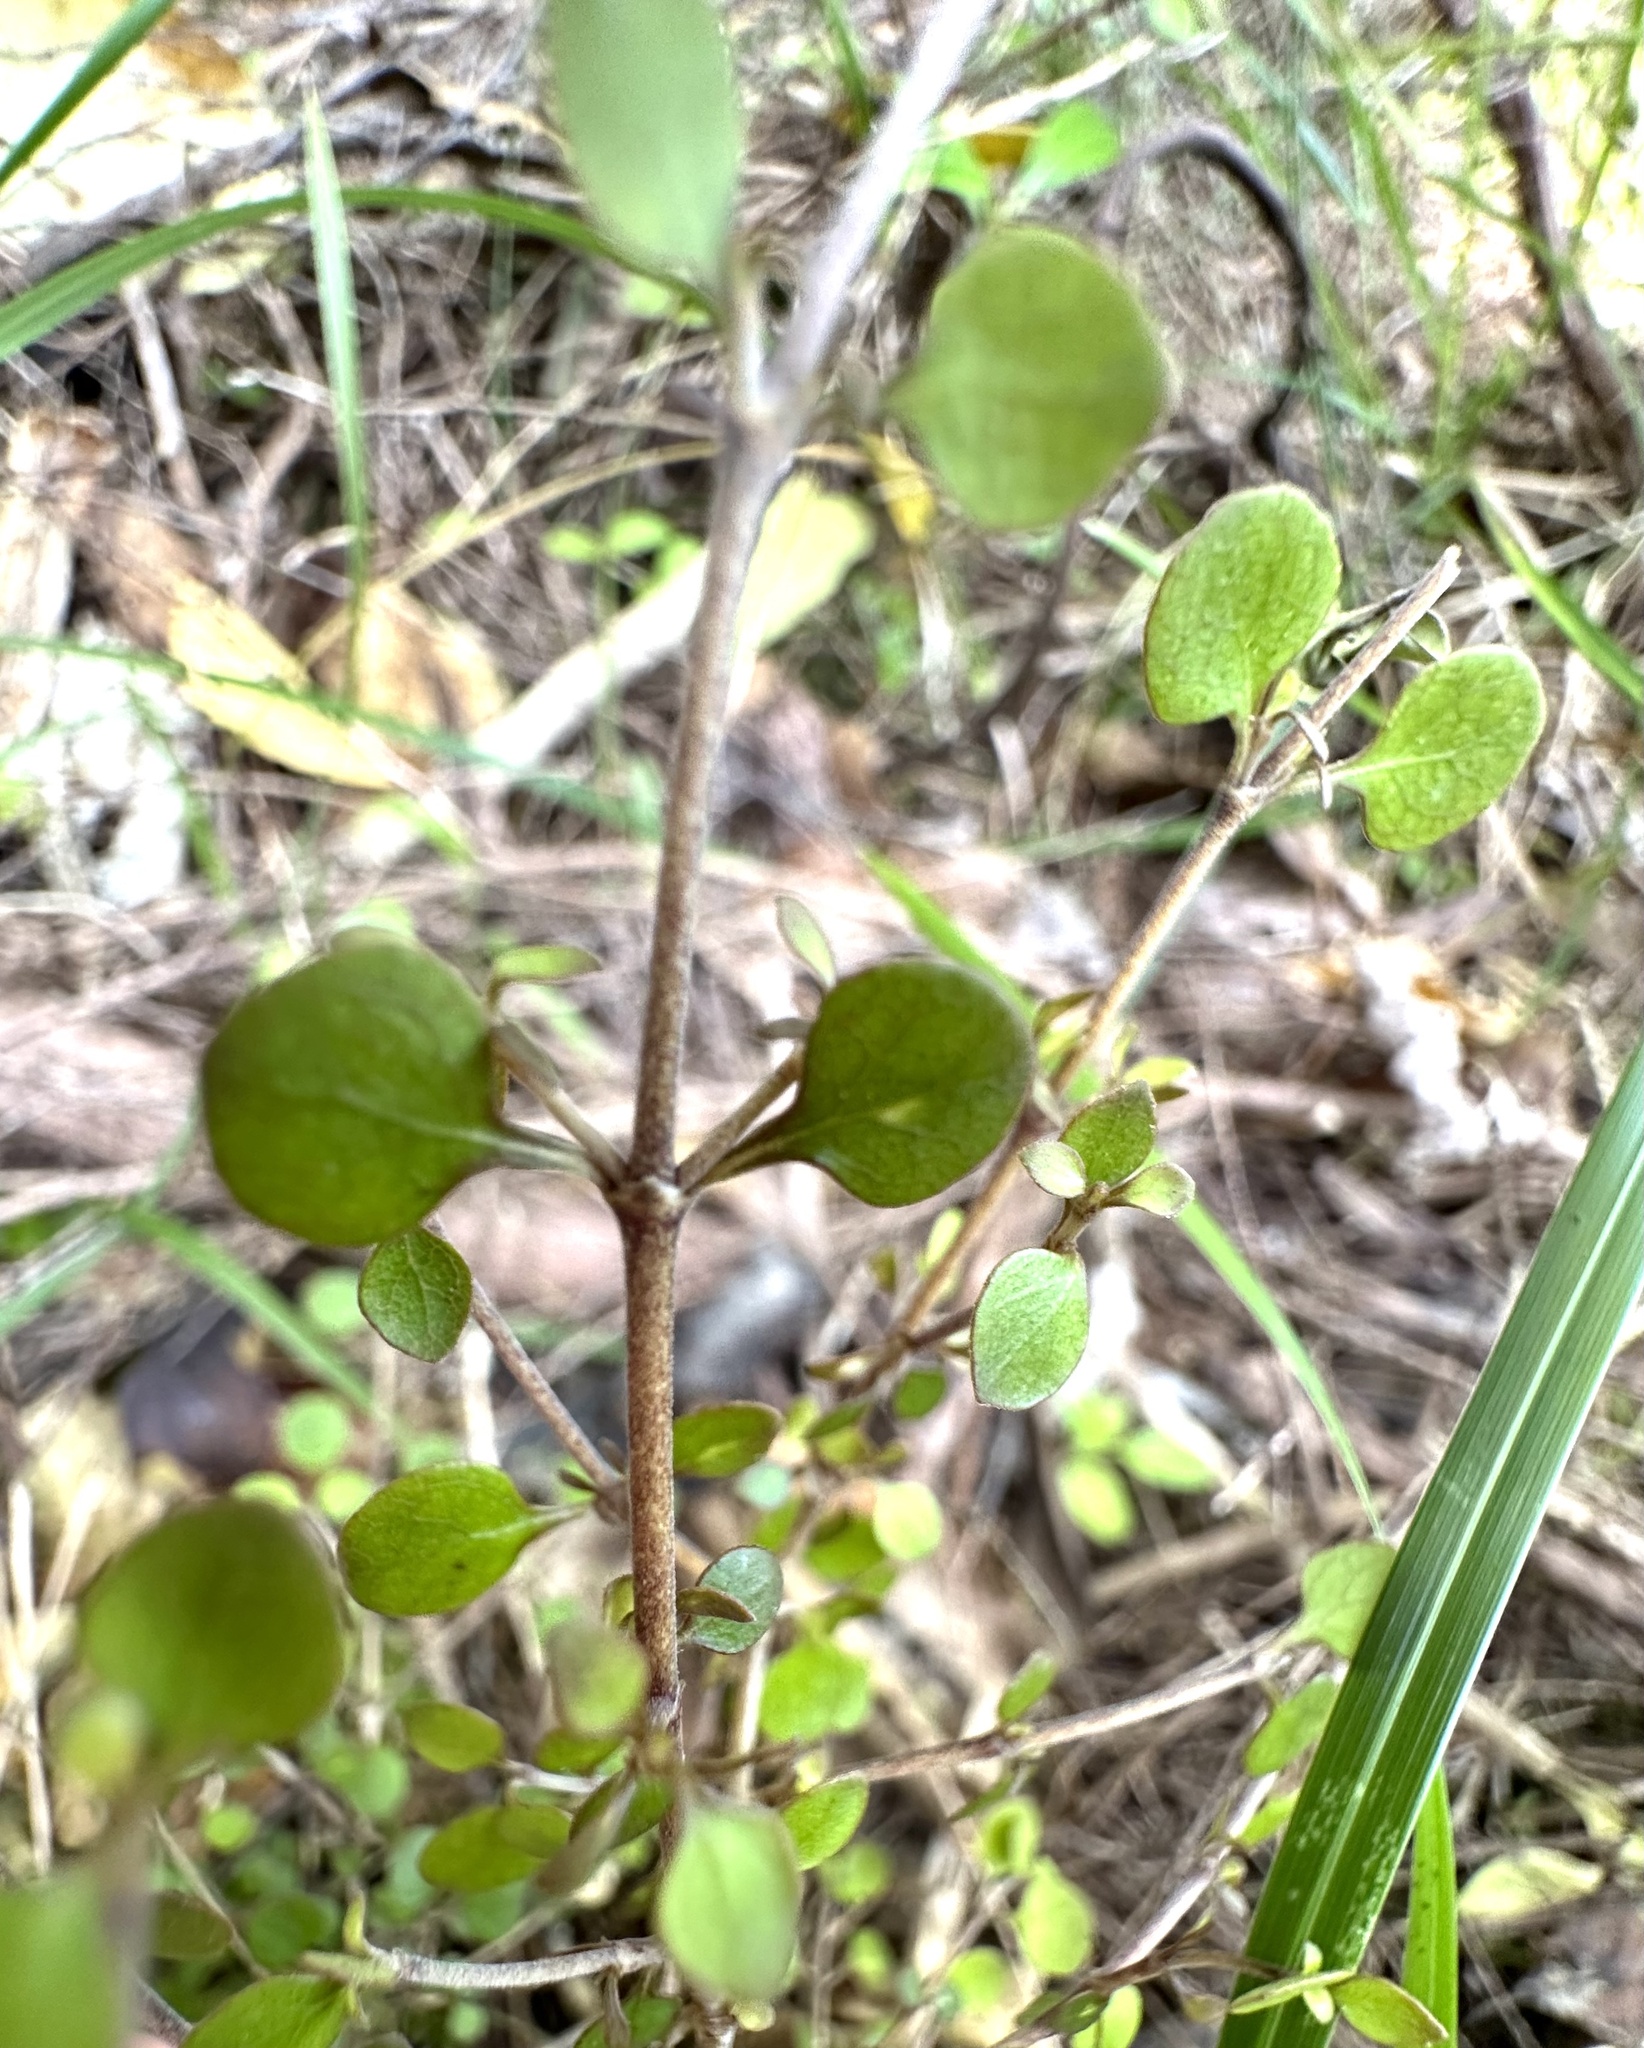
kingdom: Plantae
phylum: Tracheophyta
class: Magnoliopsida
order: Gentianales
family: Rubiaceae
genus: Coprosma
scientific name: Coprosma rhamnoides
